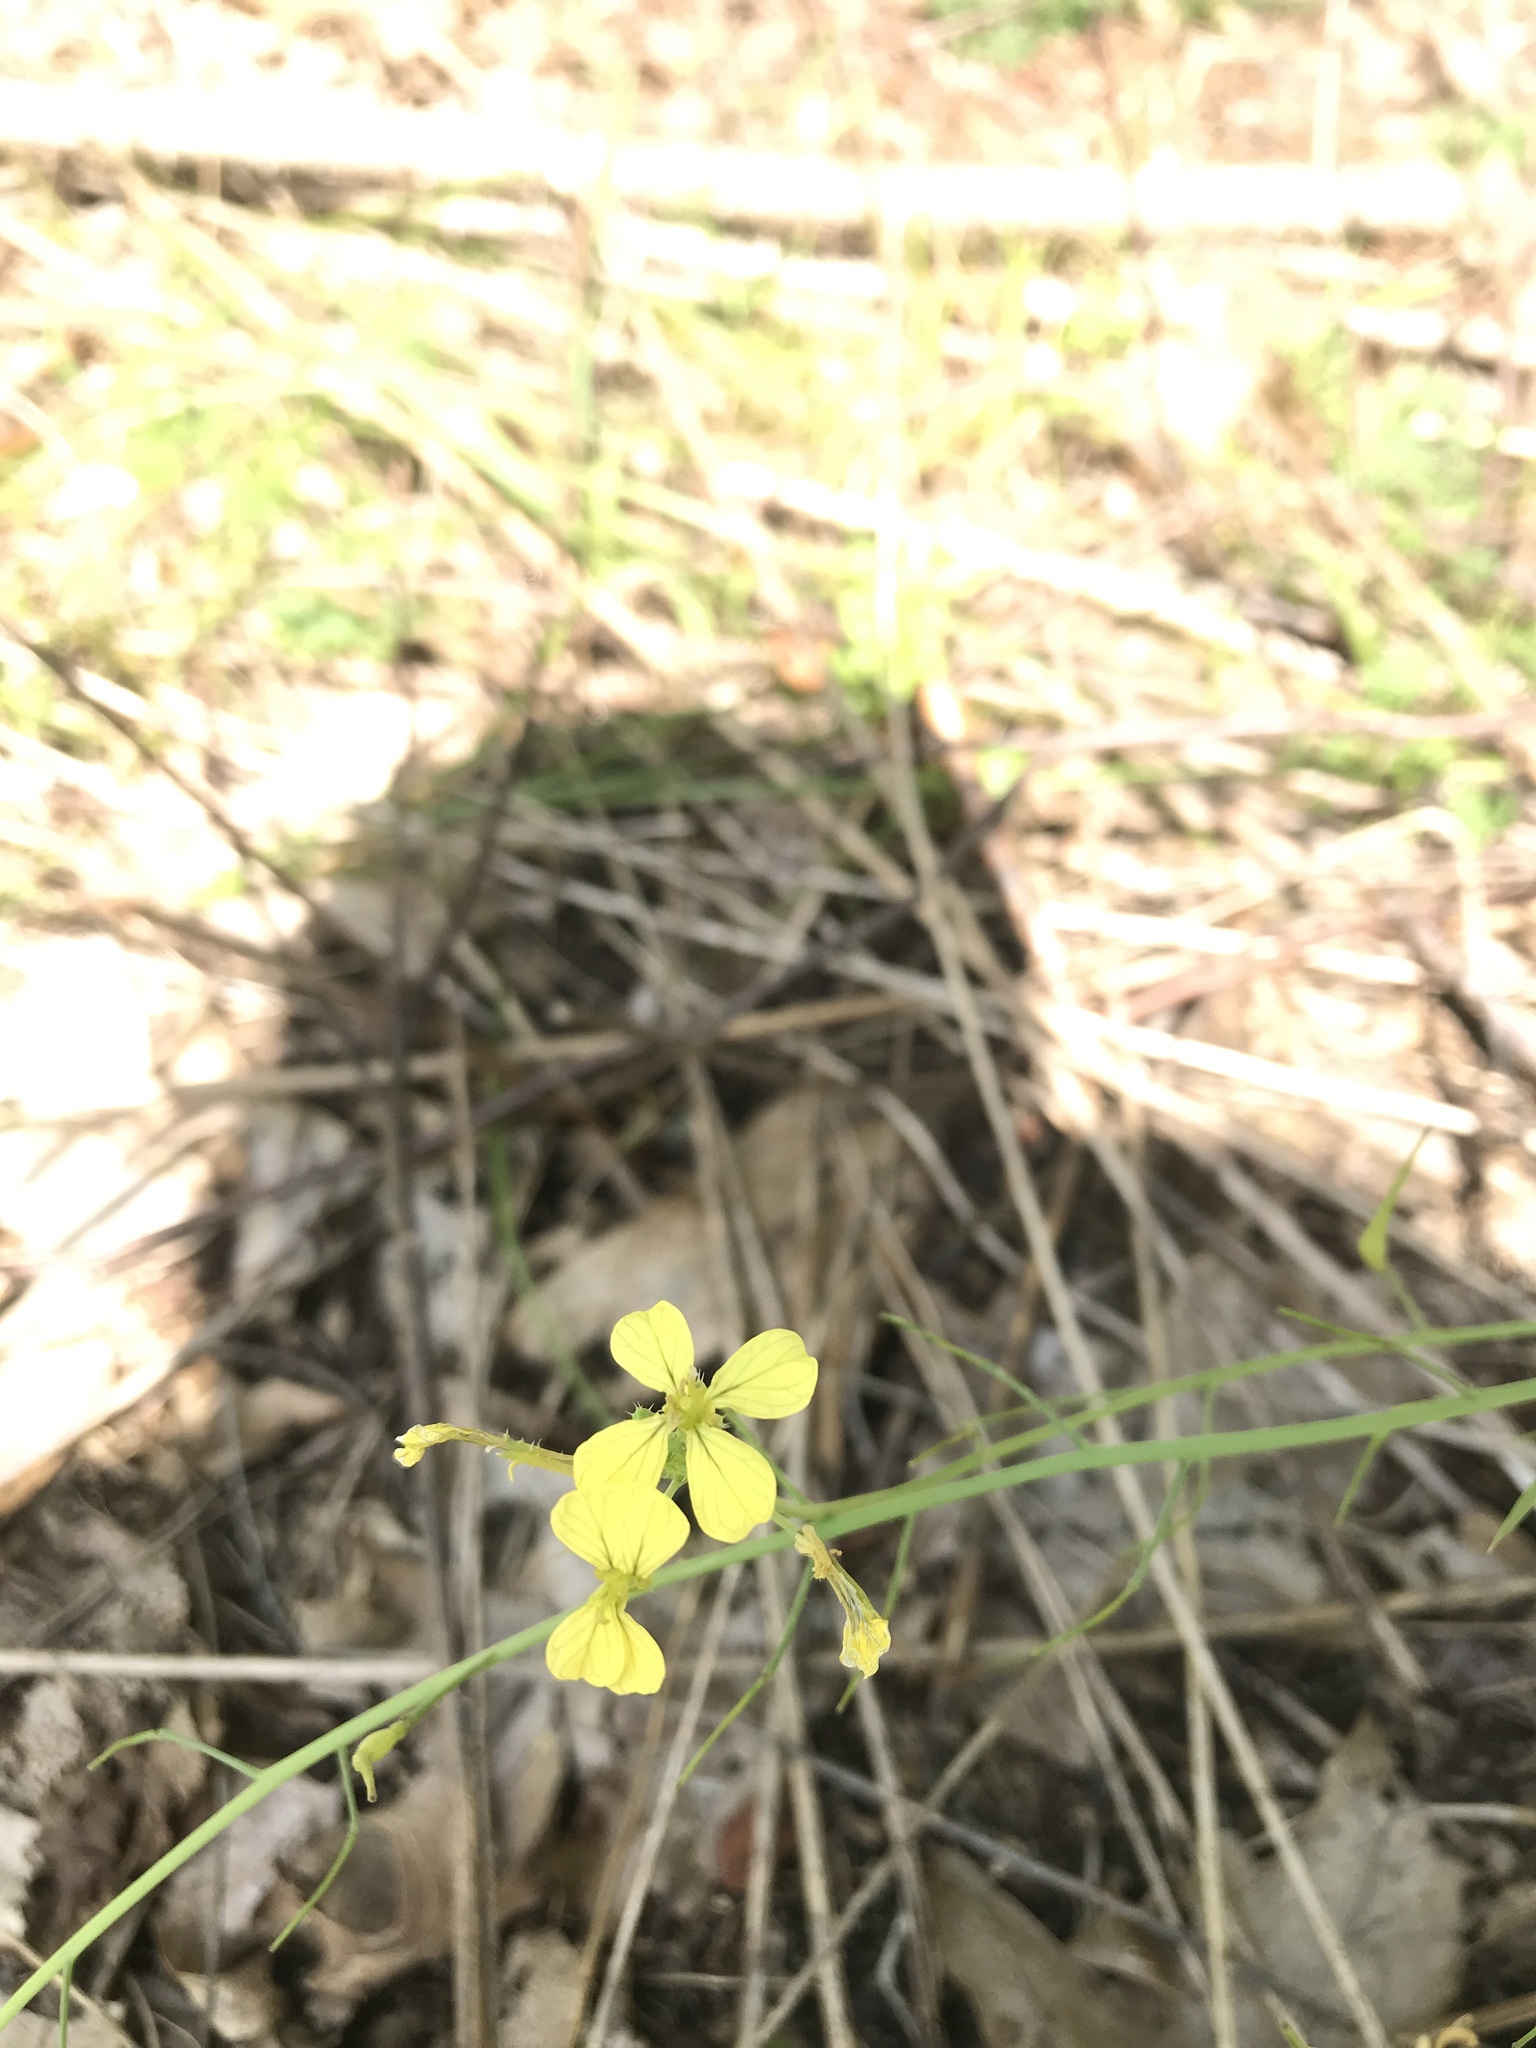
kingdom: Plantae
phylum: Tracheophyta
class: Magnoliopsida
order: Brassicales
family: Brassicaceae
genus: Raphanus
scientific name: Raphanus raphanistrum
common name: Wild radish
